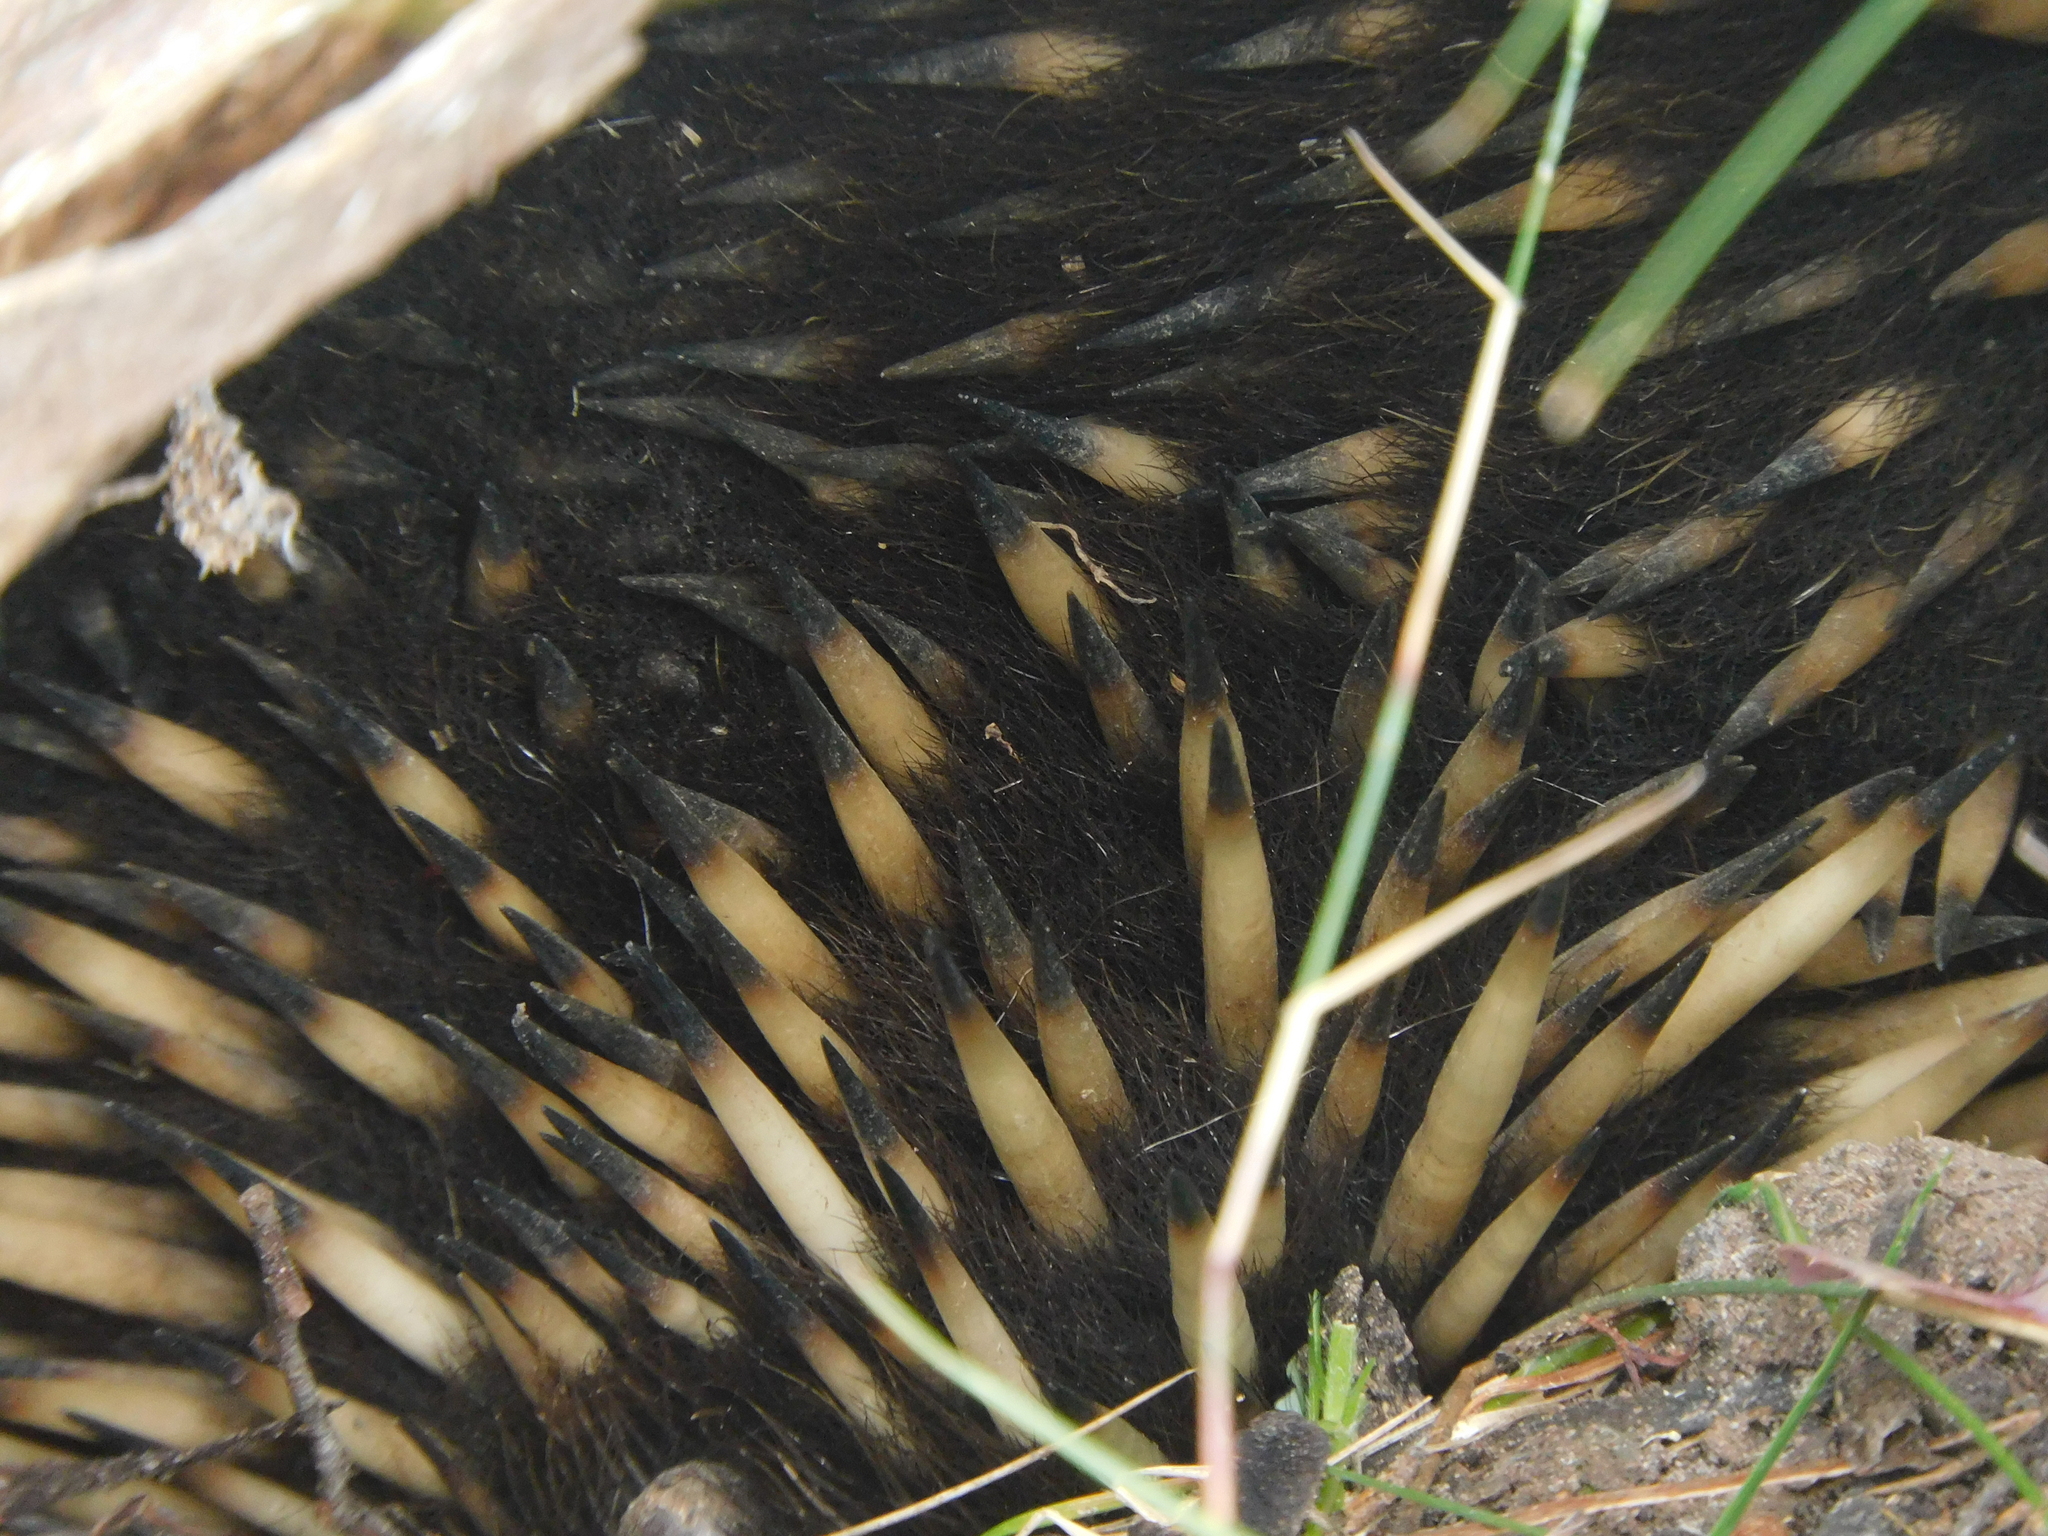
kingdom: Animalia
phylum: Chordata
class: Mammalia
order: Monotremata
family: Tachyglossidae
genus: Tachyglossus
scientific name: Tachyglossus aculeatus
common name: Short-beaked echidna
